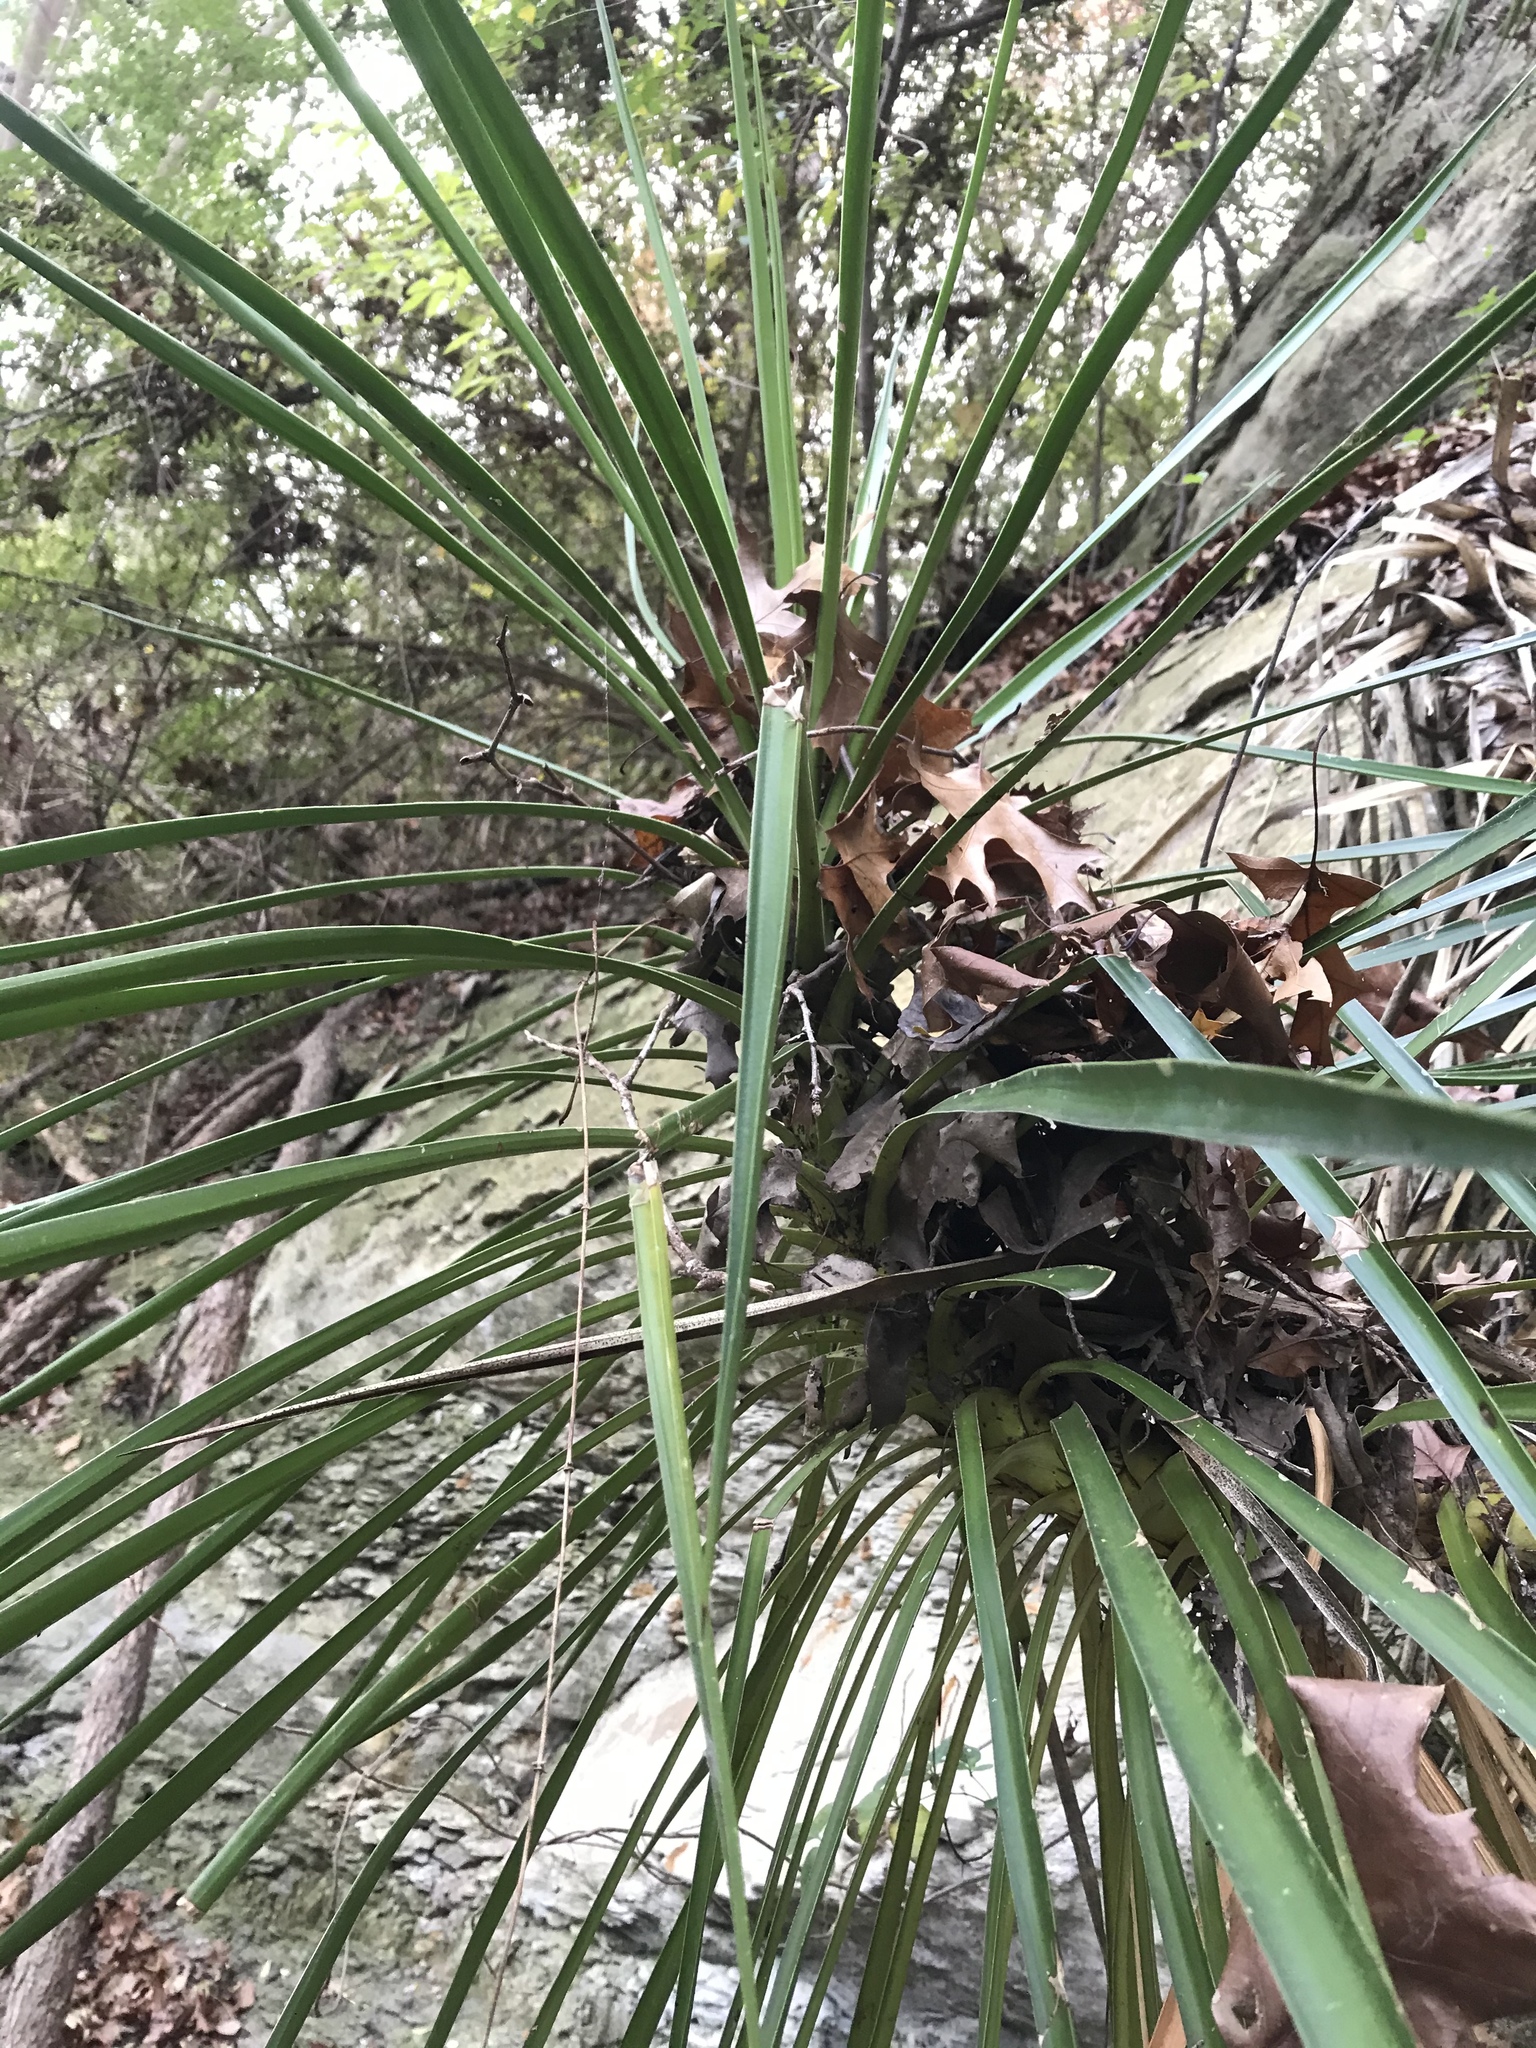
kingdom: Plantae
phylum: Tracheophyta
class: Liliopsida
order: Asparagales
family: Asparagaceae
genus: Yucca
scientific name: Yucca aloifolia
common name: Aloe yucca
